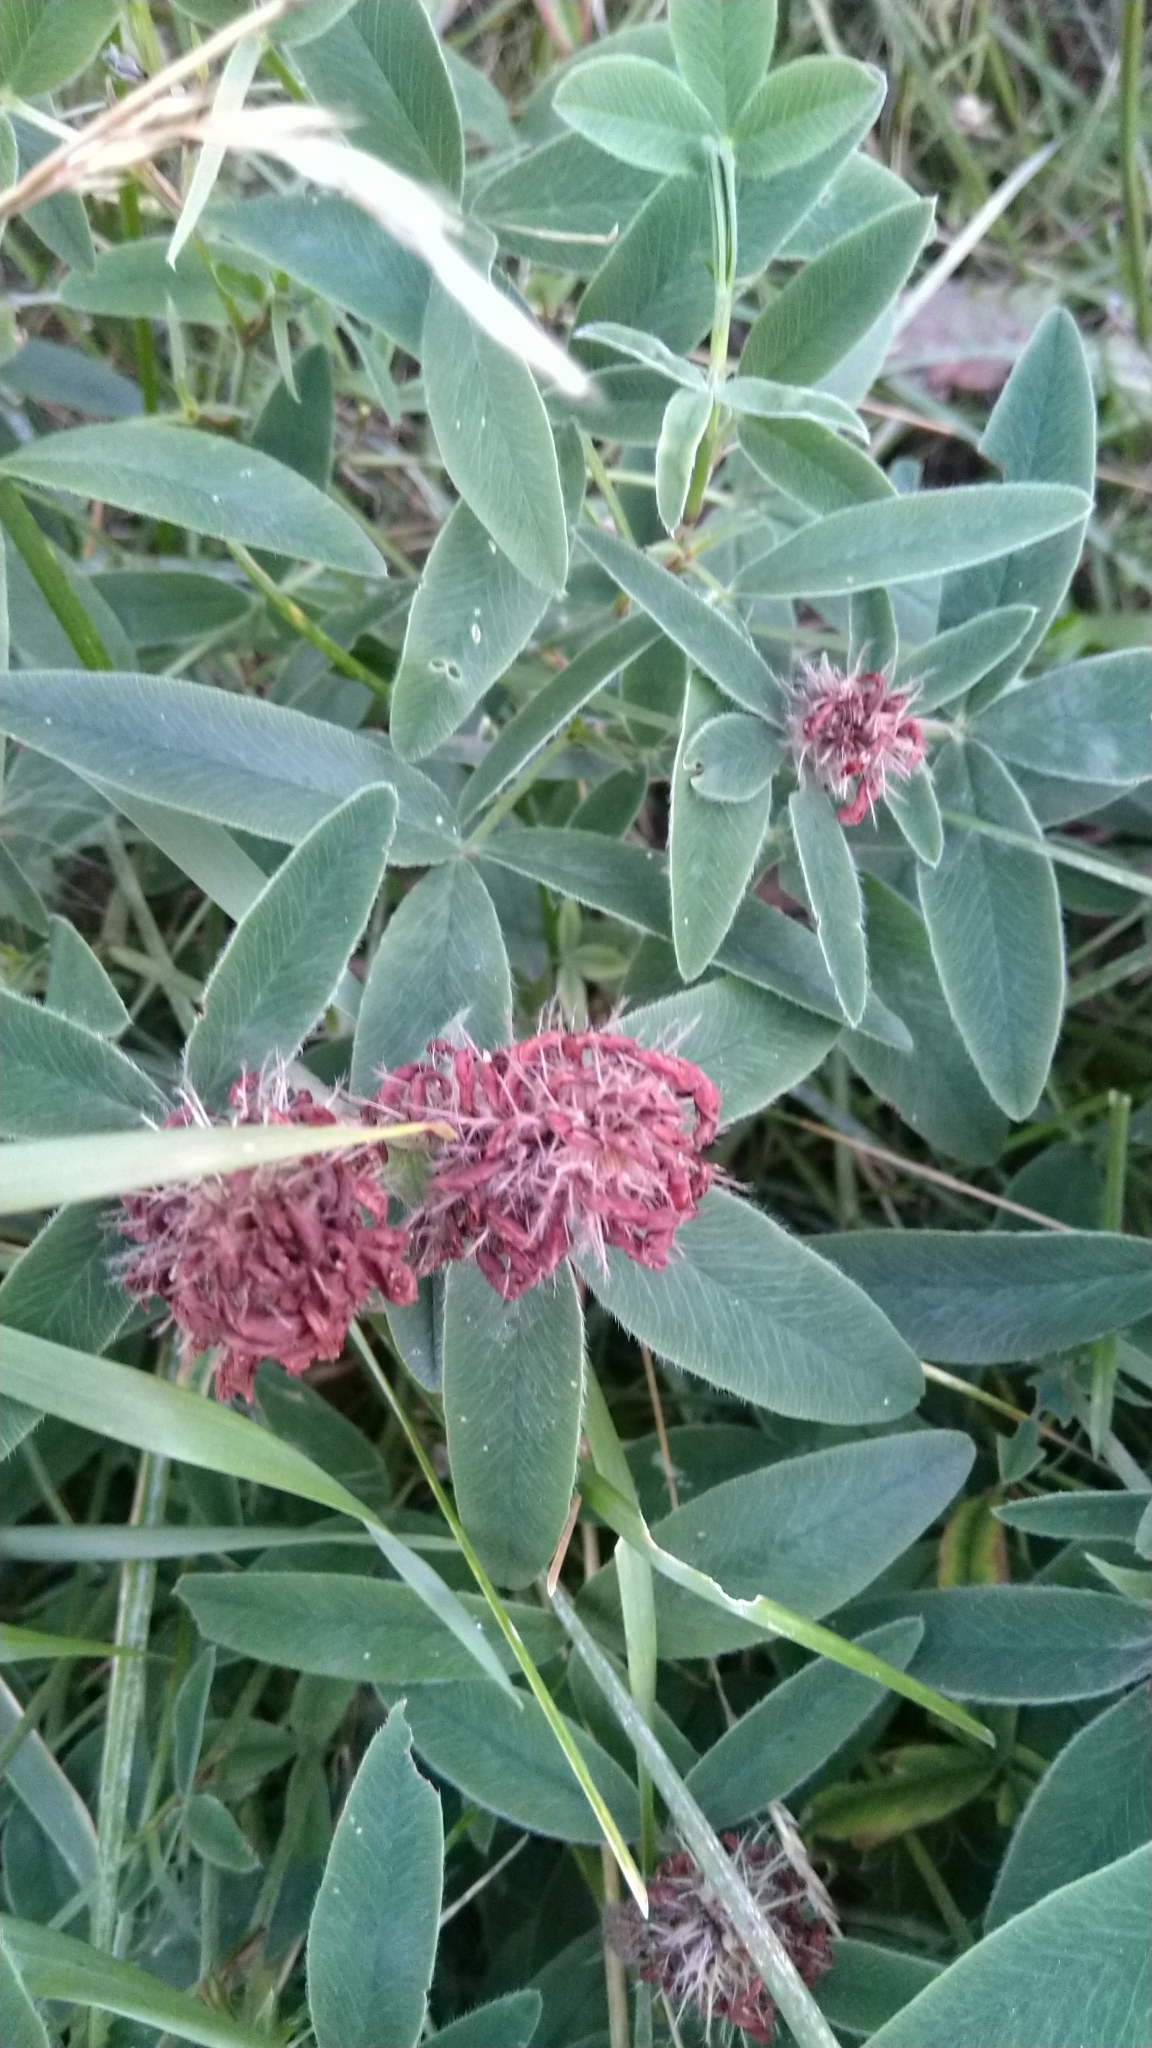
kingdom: Plantae
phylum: Tracheophyta
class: Magnoliopsida
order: Fabales
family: Fabaceae
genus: Trifolium
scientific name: Trifolium medium
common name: Zigzag clover
